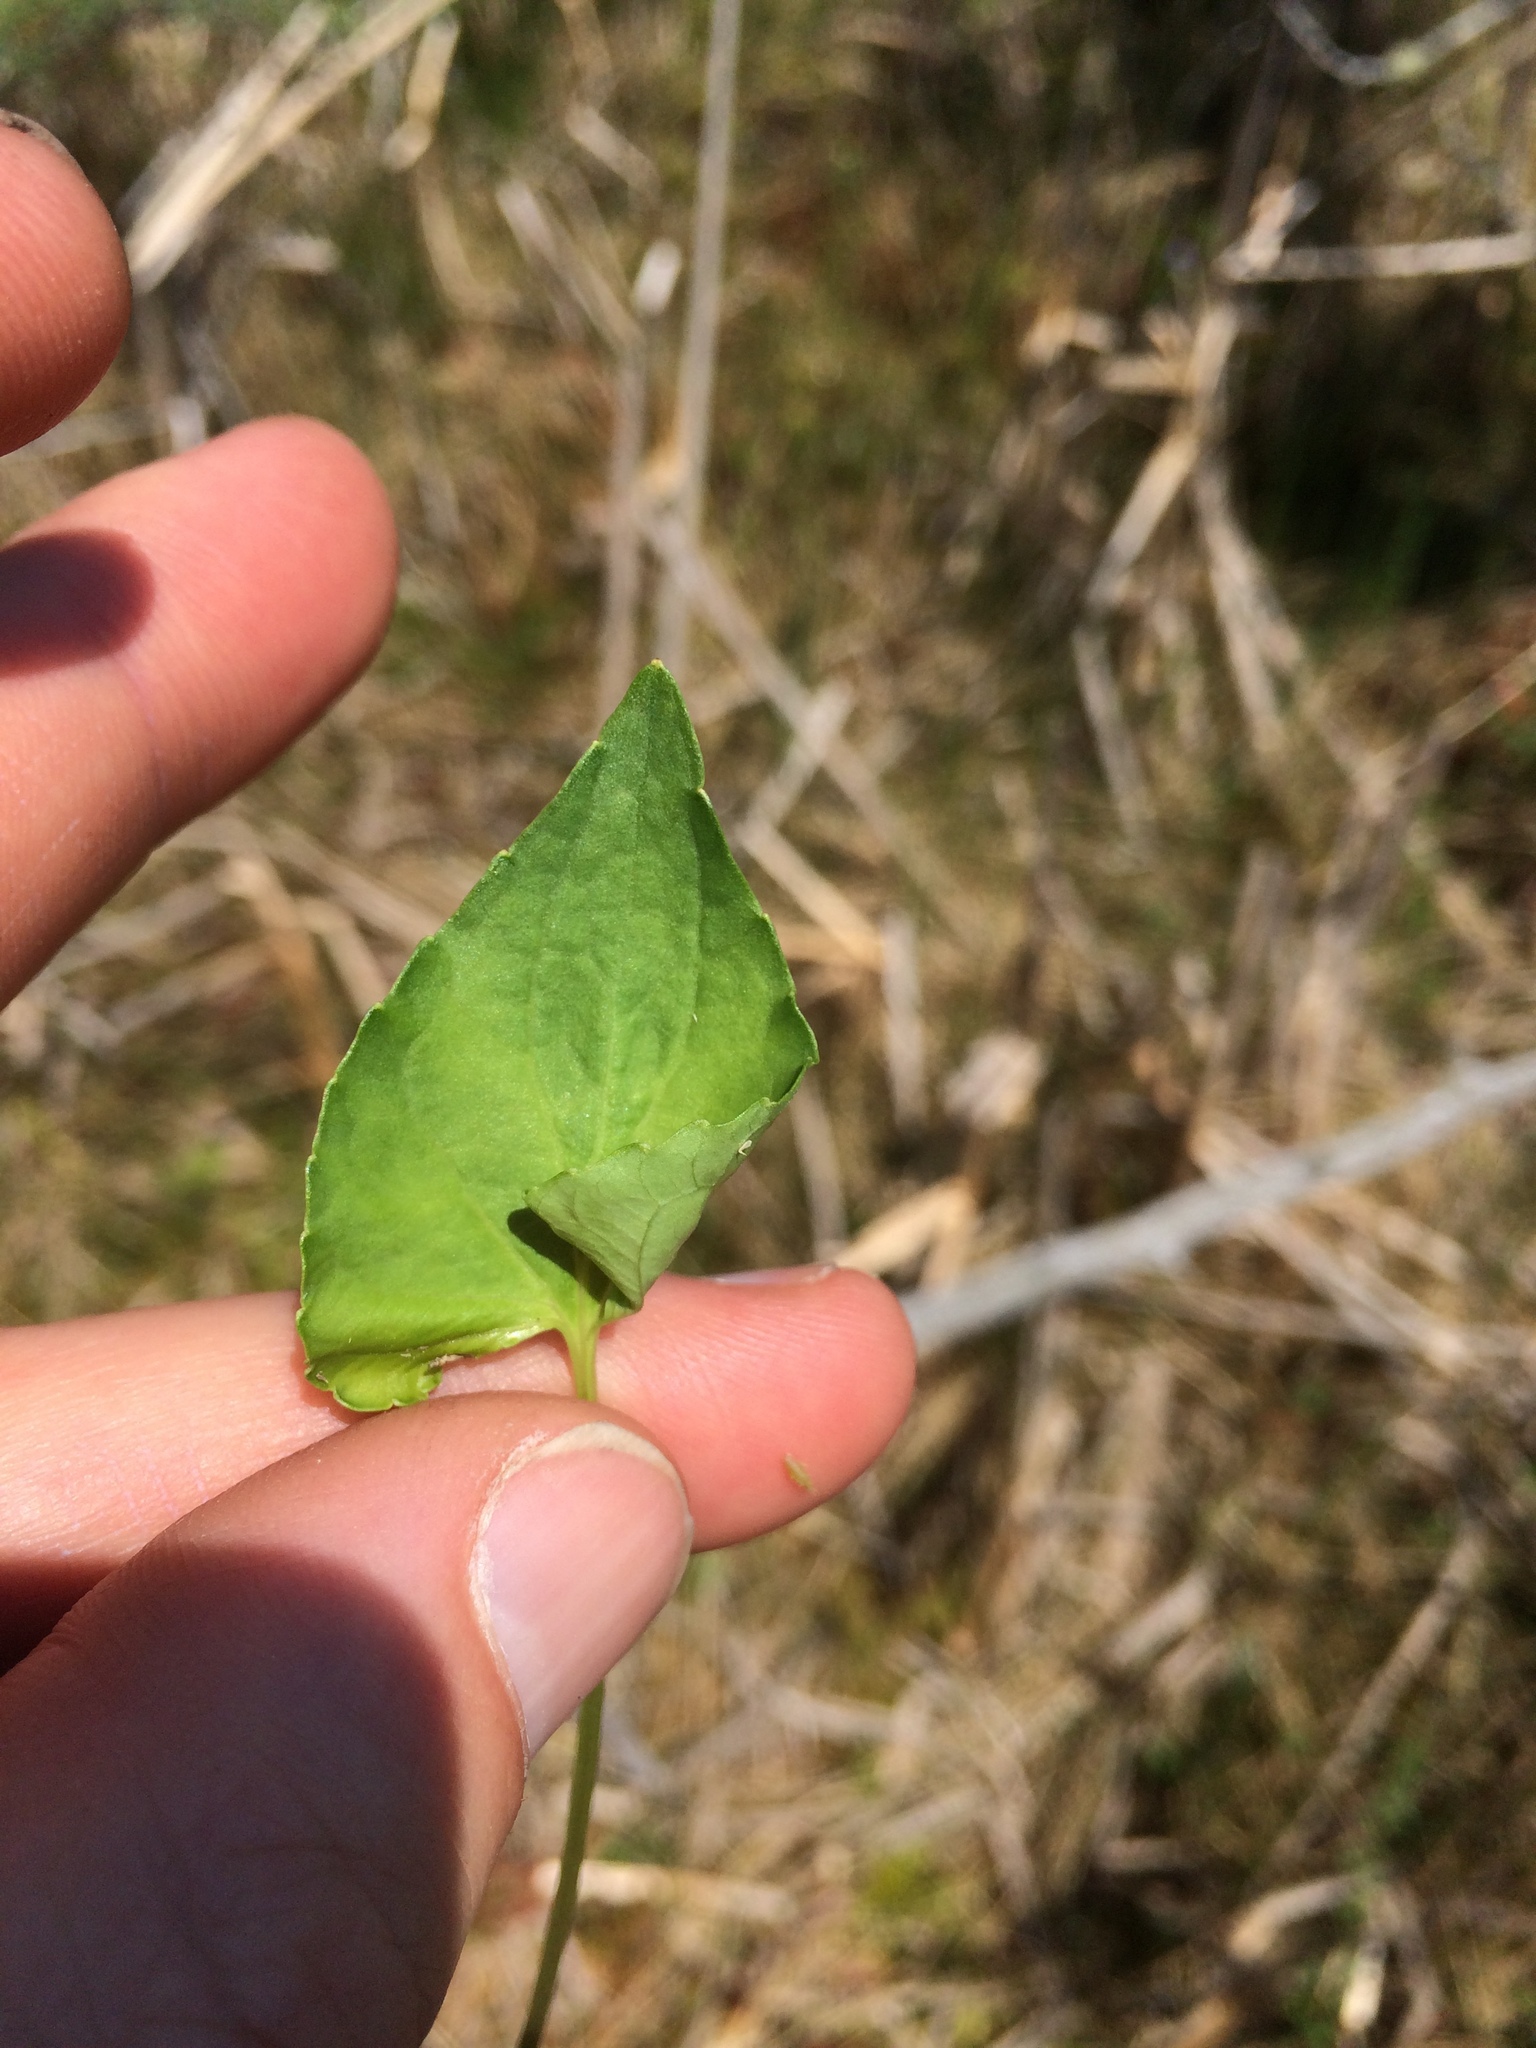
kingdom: Plantae
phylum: Tracheophyta
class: Magnoliopsida
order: Malpighiales
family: Violaceae
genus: Viola
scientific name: Viola nephrophylla
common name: Blue meadow violet
